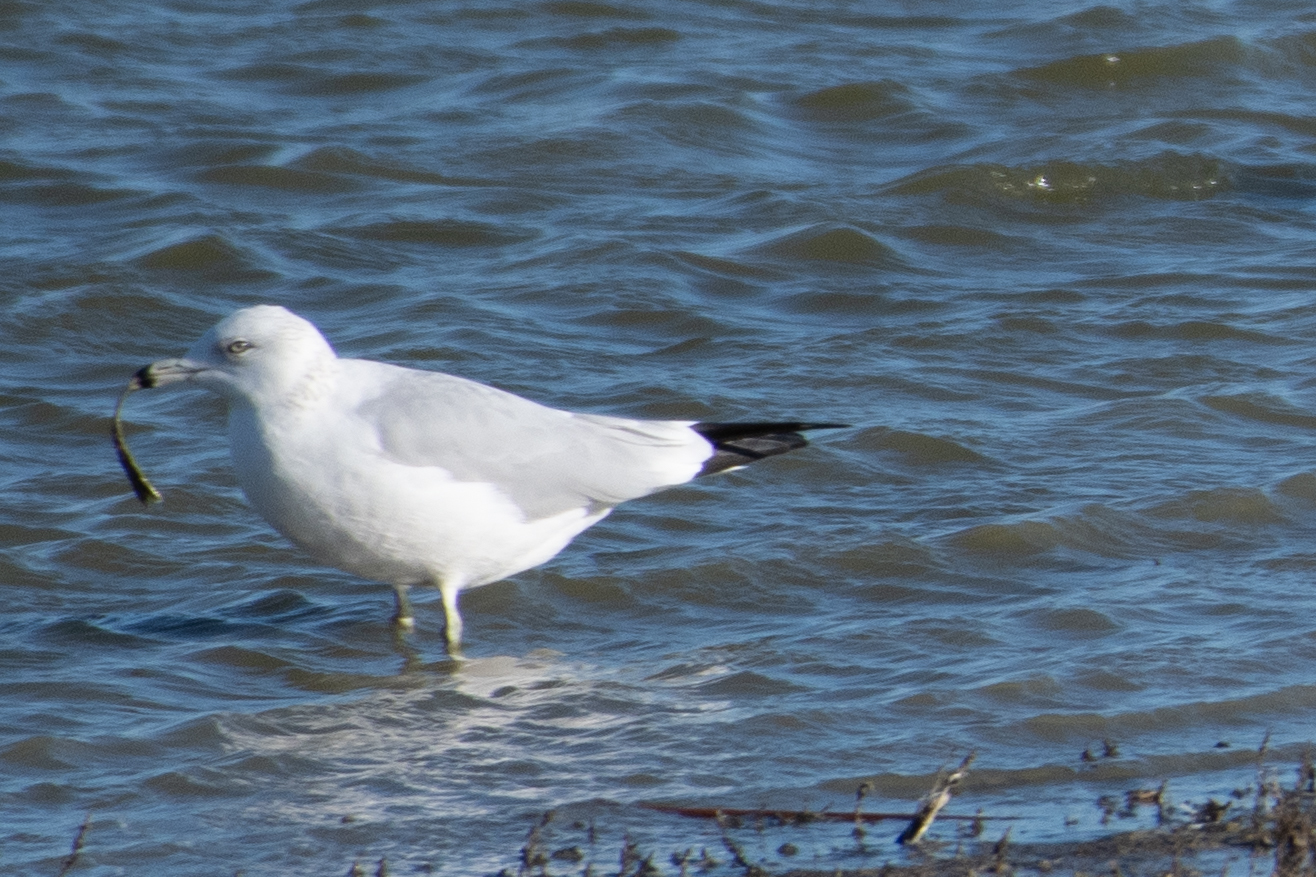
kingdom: Animalia
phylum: Chordata
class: Aves
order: Charadriiformes
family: Laridae
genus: Larus
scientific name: Larus delawarensis
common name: Ring-billed gull
